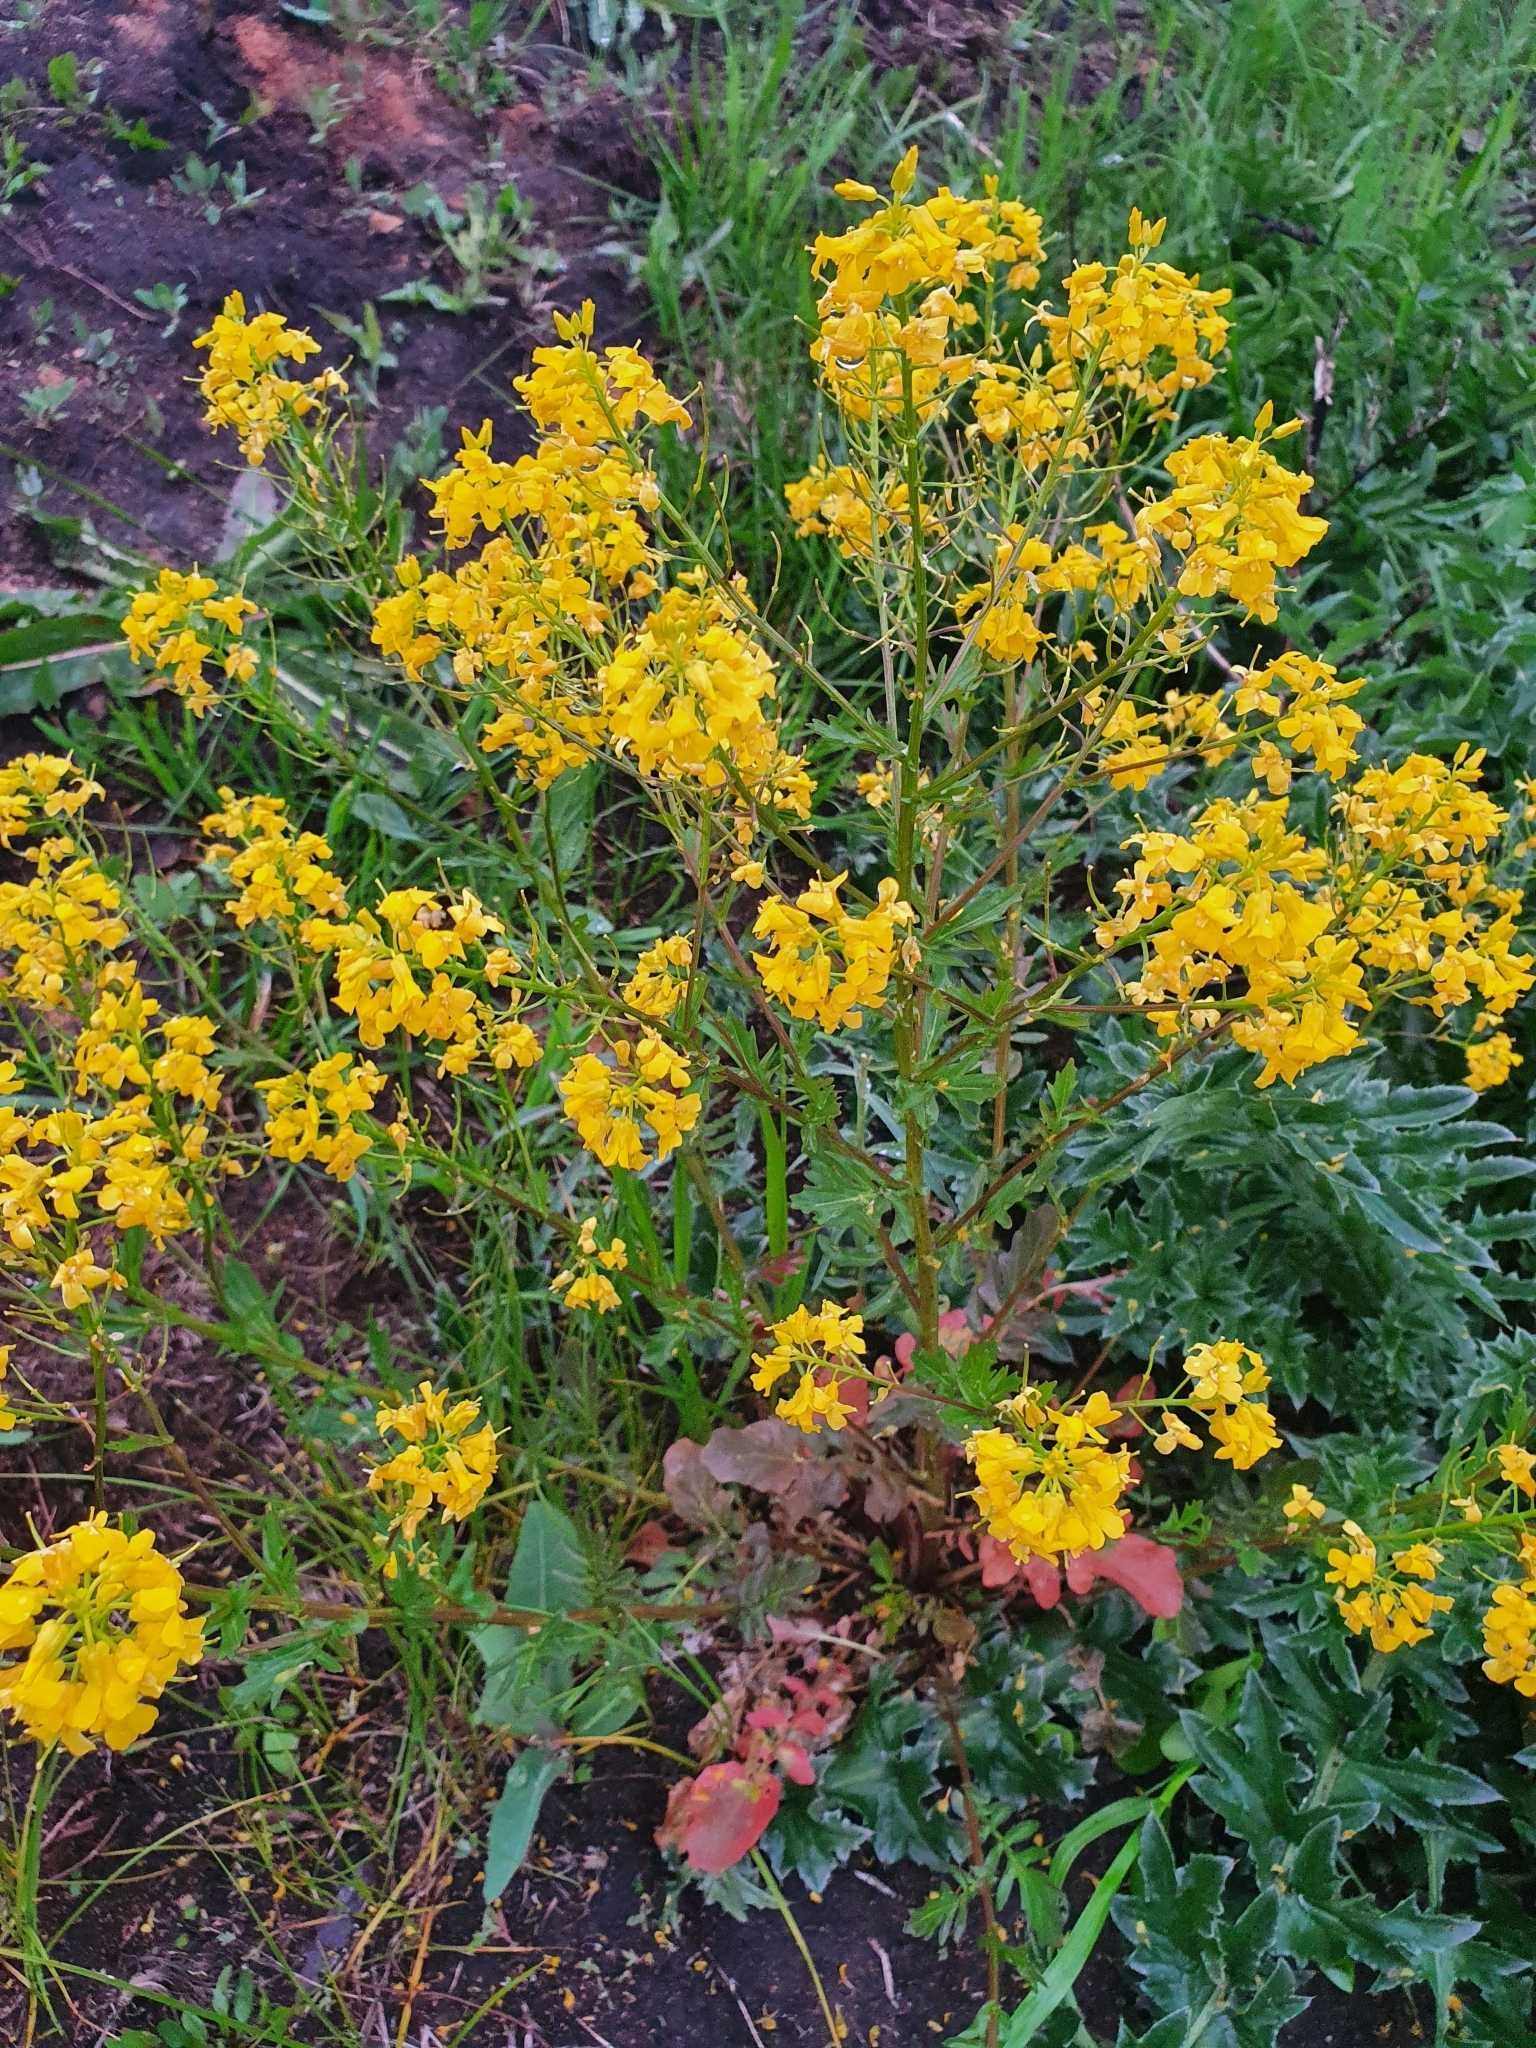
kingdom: Plantae
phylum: Tracheophyta
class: Magnoliopsida
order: Brassicales
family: Brassicaceae
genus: Barbarea
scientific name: Barbarea vulgaris
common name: Cressy-greens
